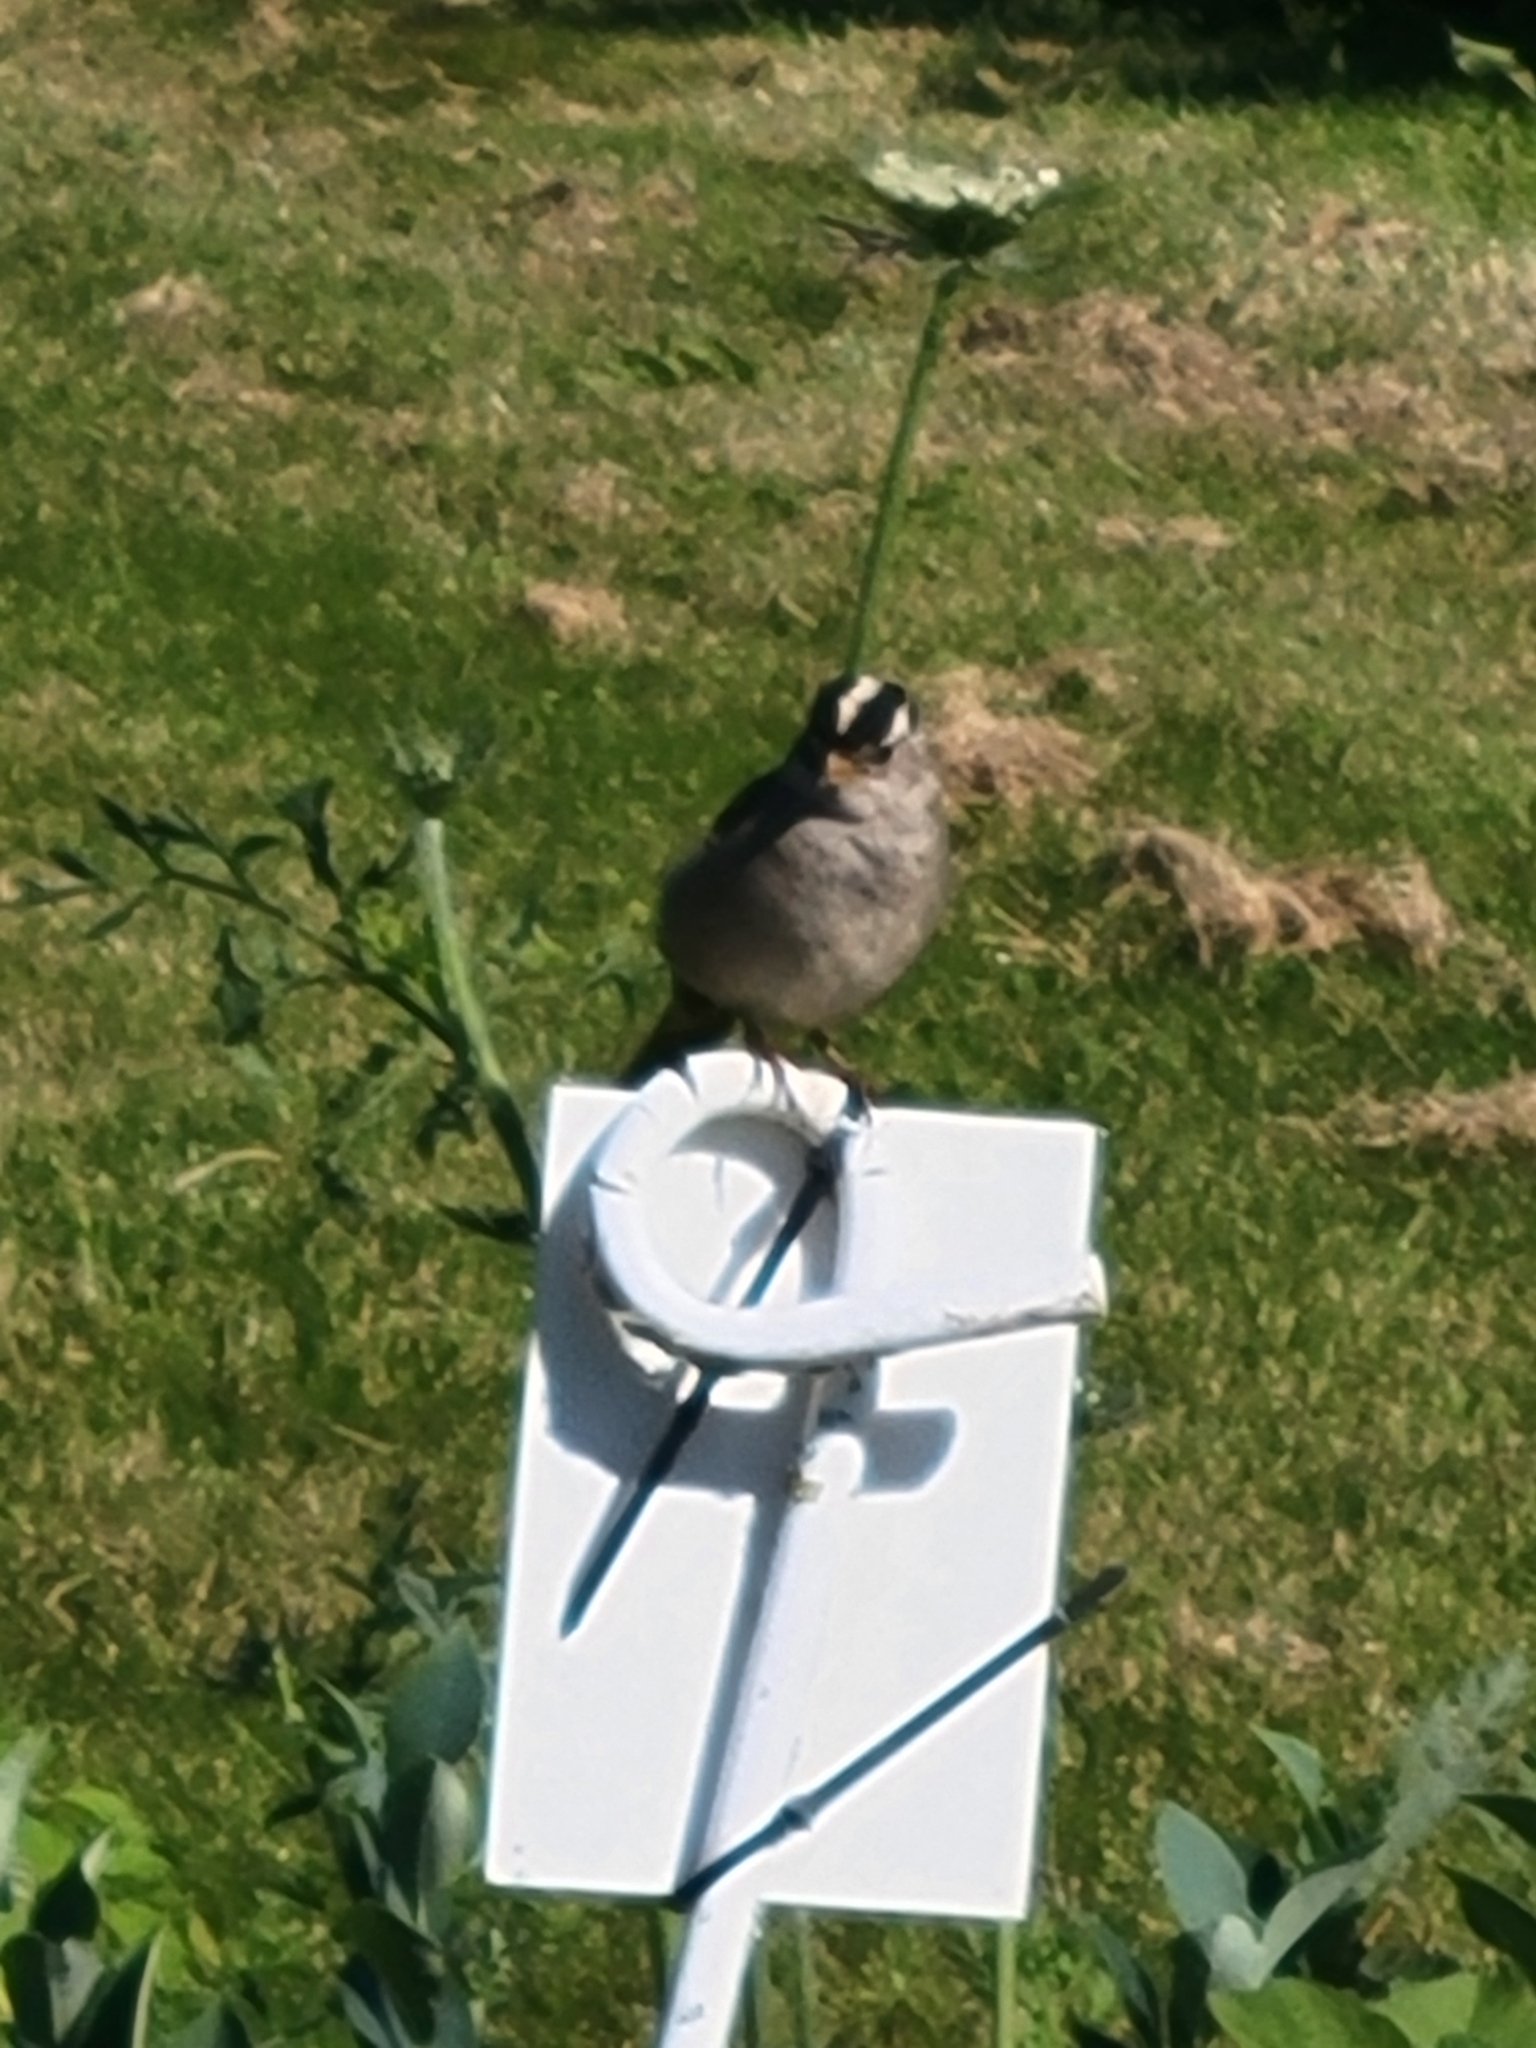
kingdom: Animalia
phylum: Chordata
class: Aves
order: Passeriformes
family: Passerellidae
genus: Zonotrichia
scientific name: Zonotrichia leucophrys
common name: White-crowned sparrow
